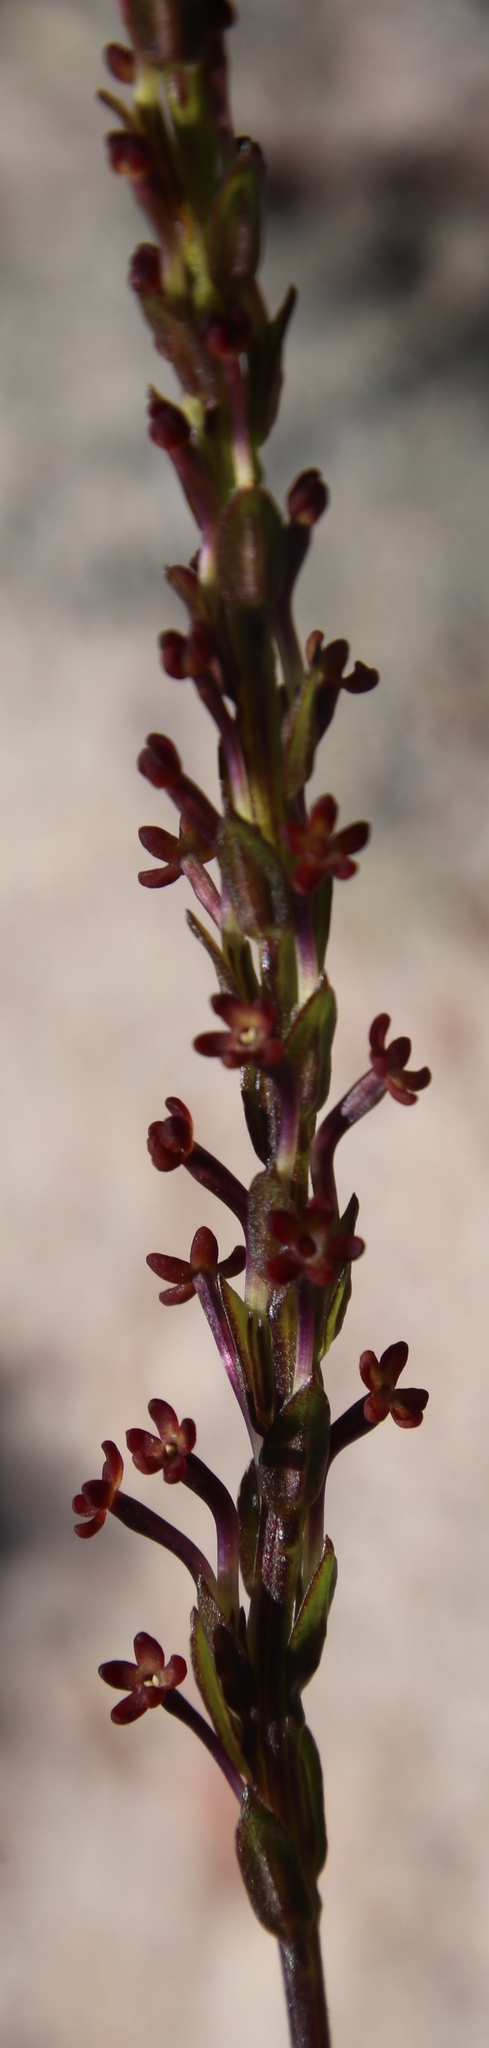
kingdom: Plantae
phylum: Tracheophyta
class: Magnoliopsida
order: Lamiales
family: Scrophulariaceae
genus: Microdon
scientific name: Microdon dubius
